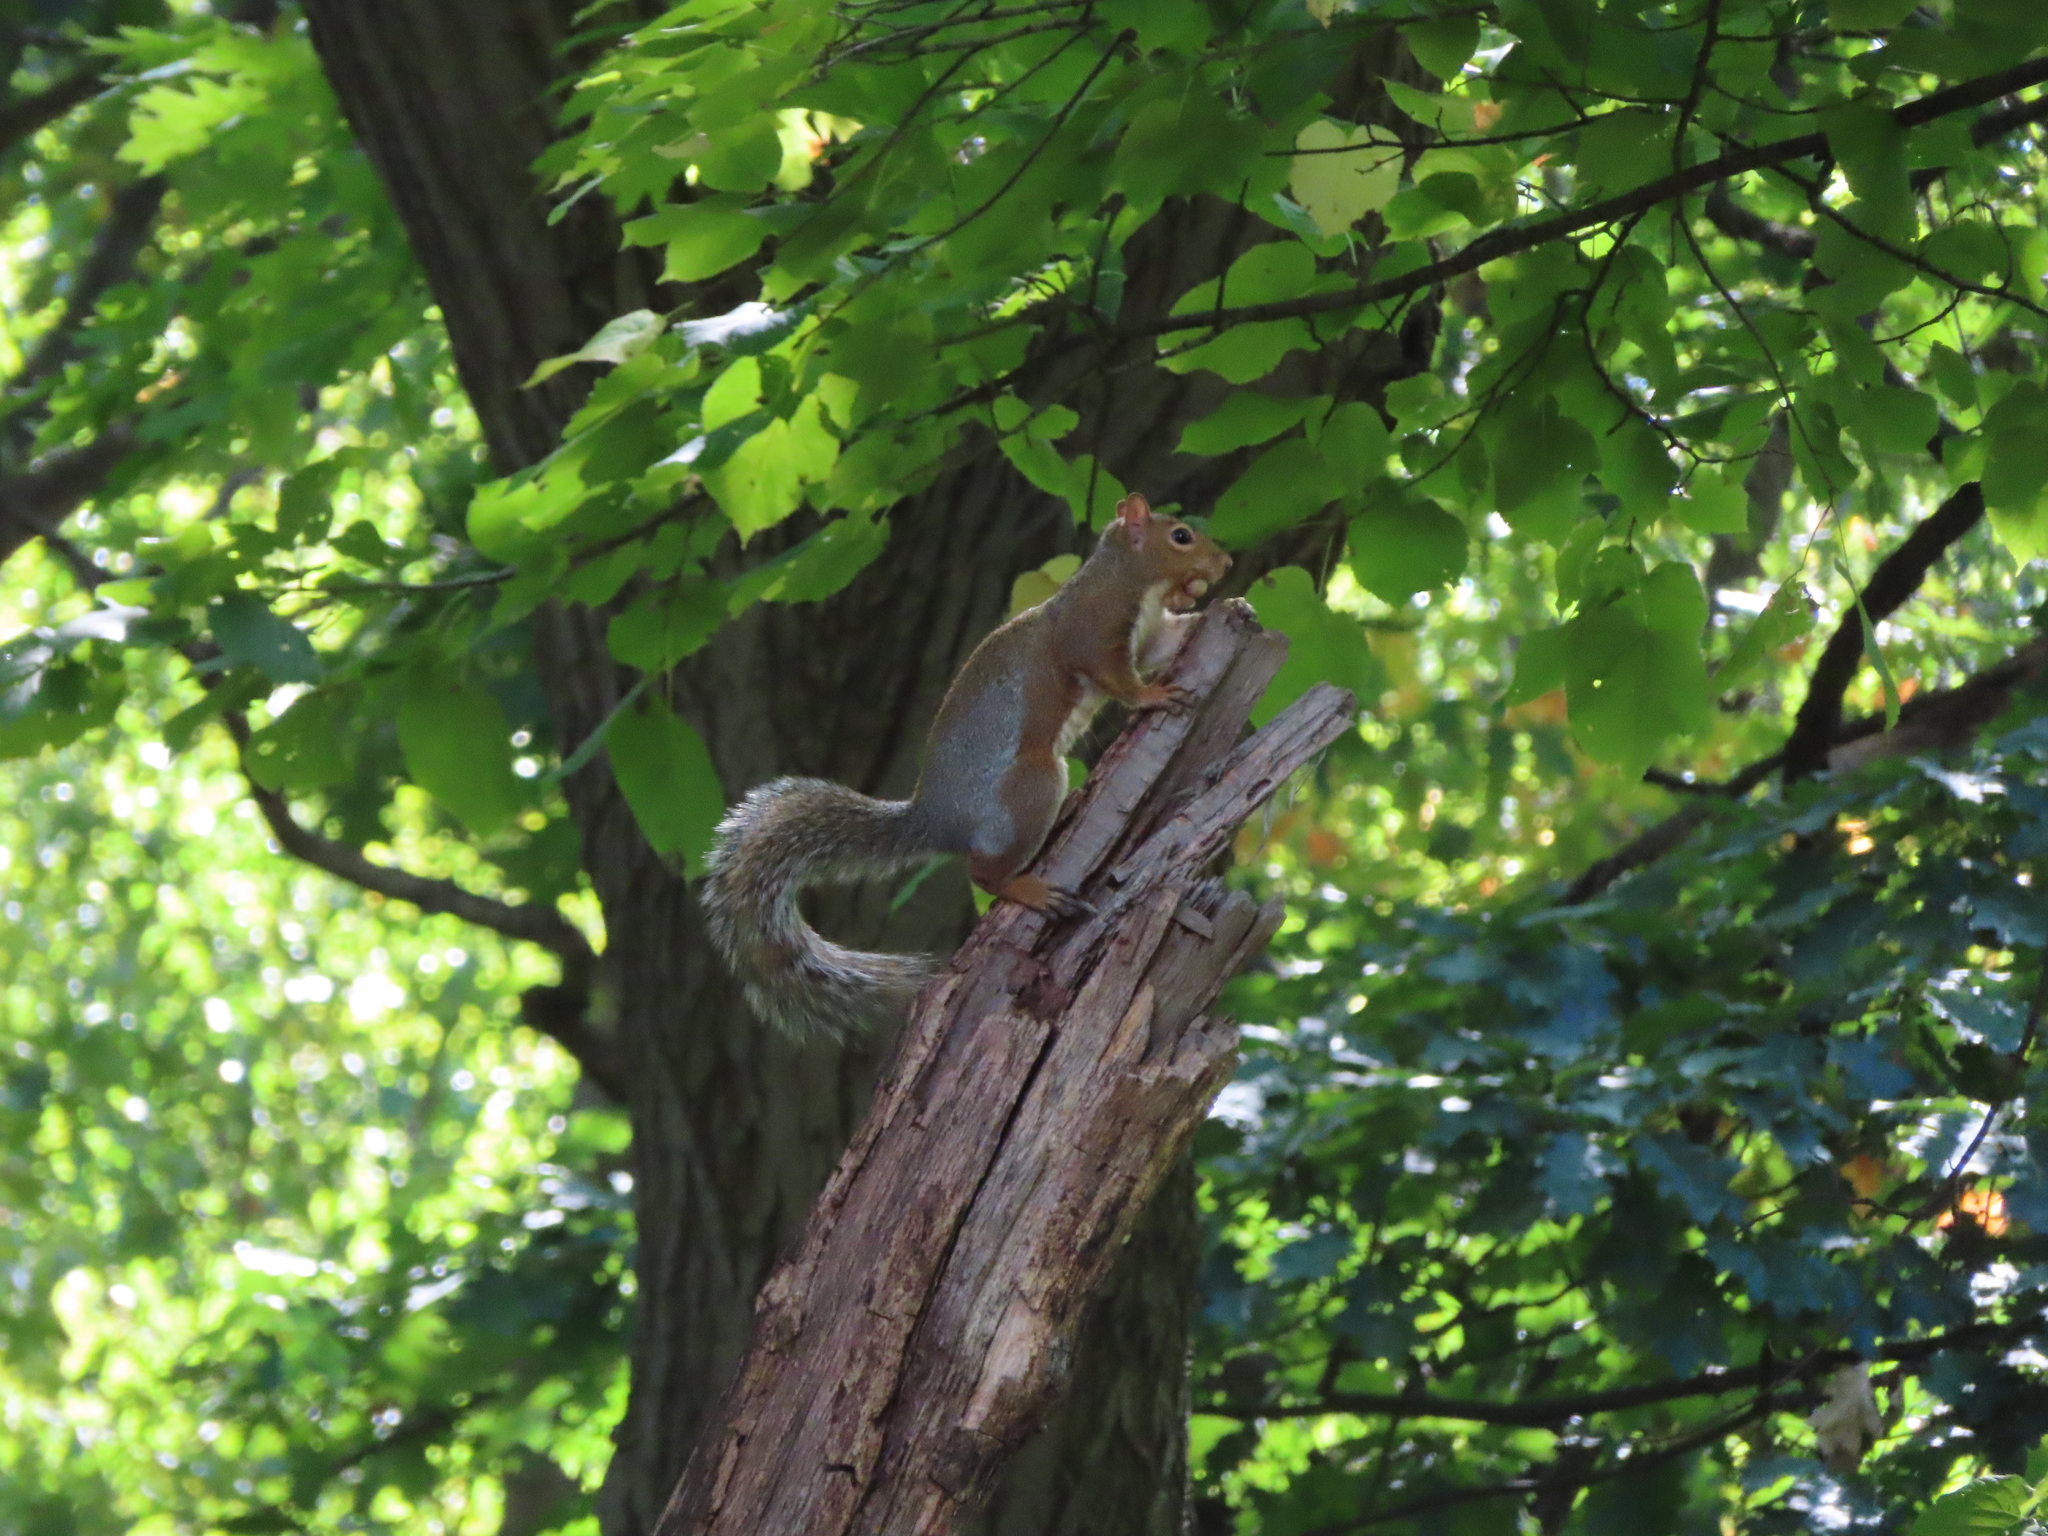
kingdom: Animalia
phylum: Chordata
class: Mammalia
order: Rodentia
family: Sciuridae
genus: Sciurus
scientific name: Sciurus carolinensis
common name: Eastern gray squirrel
